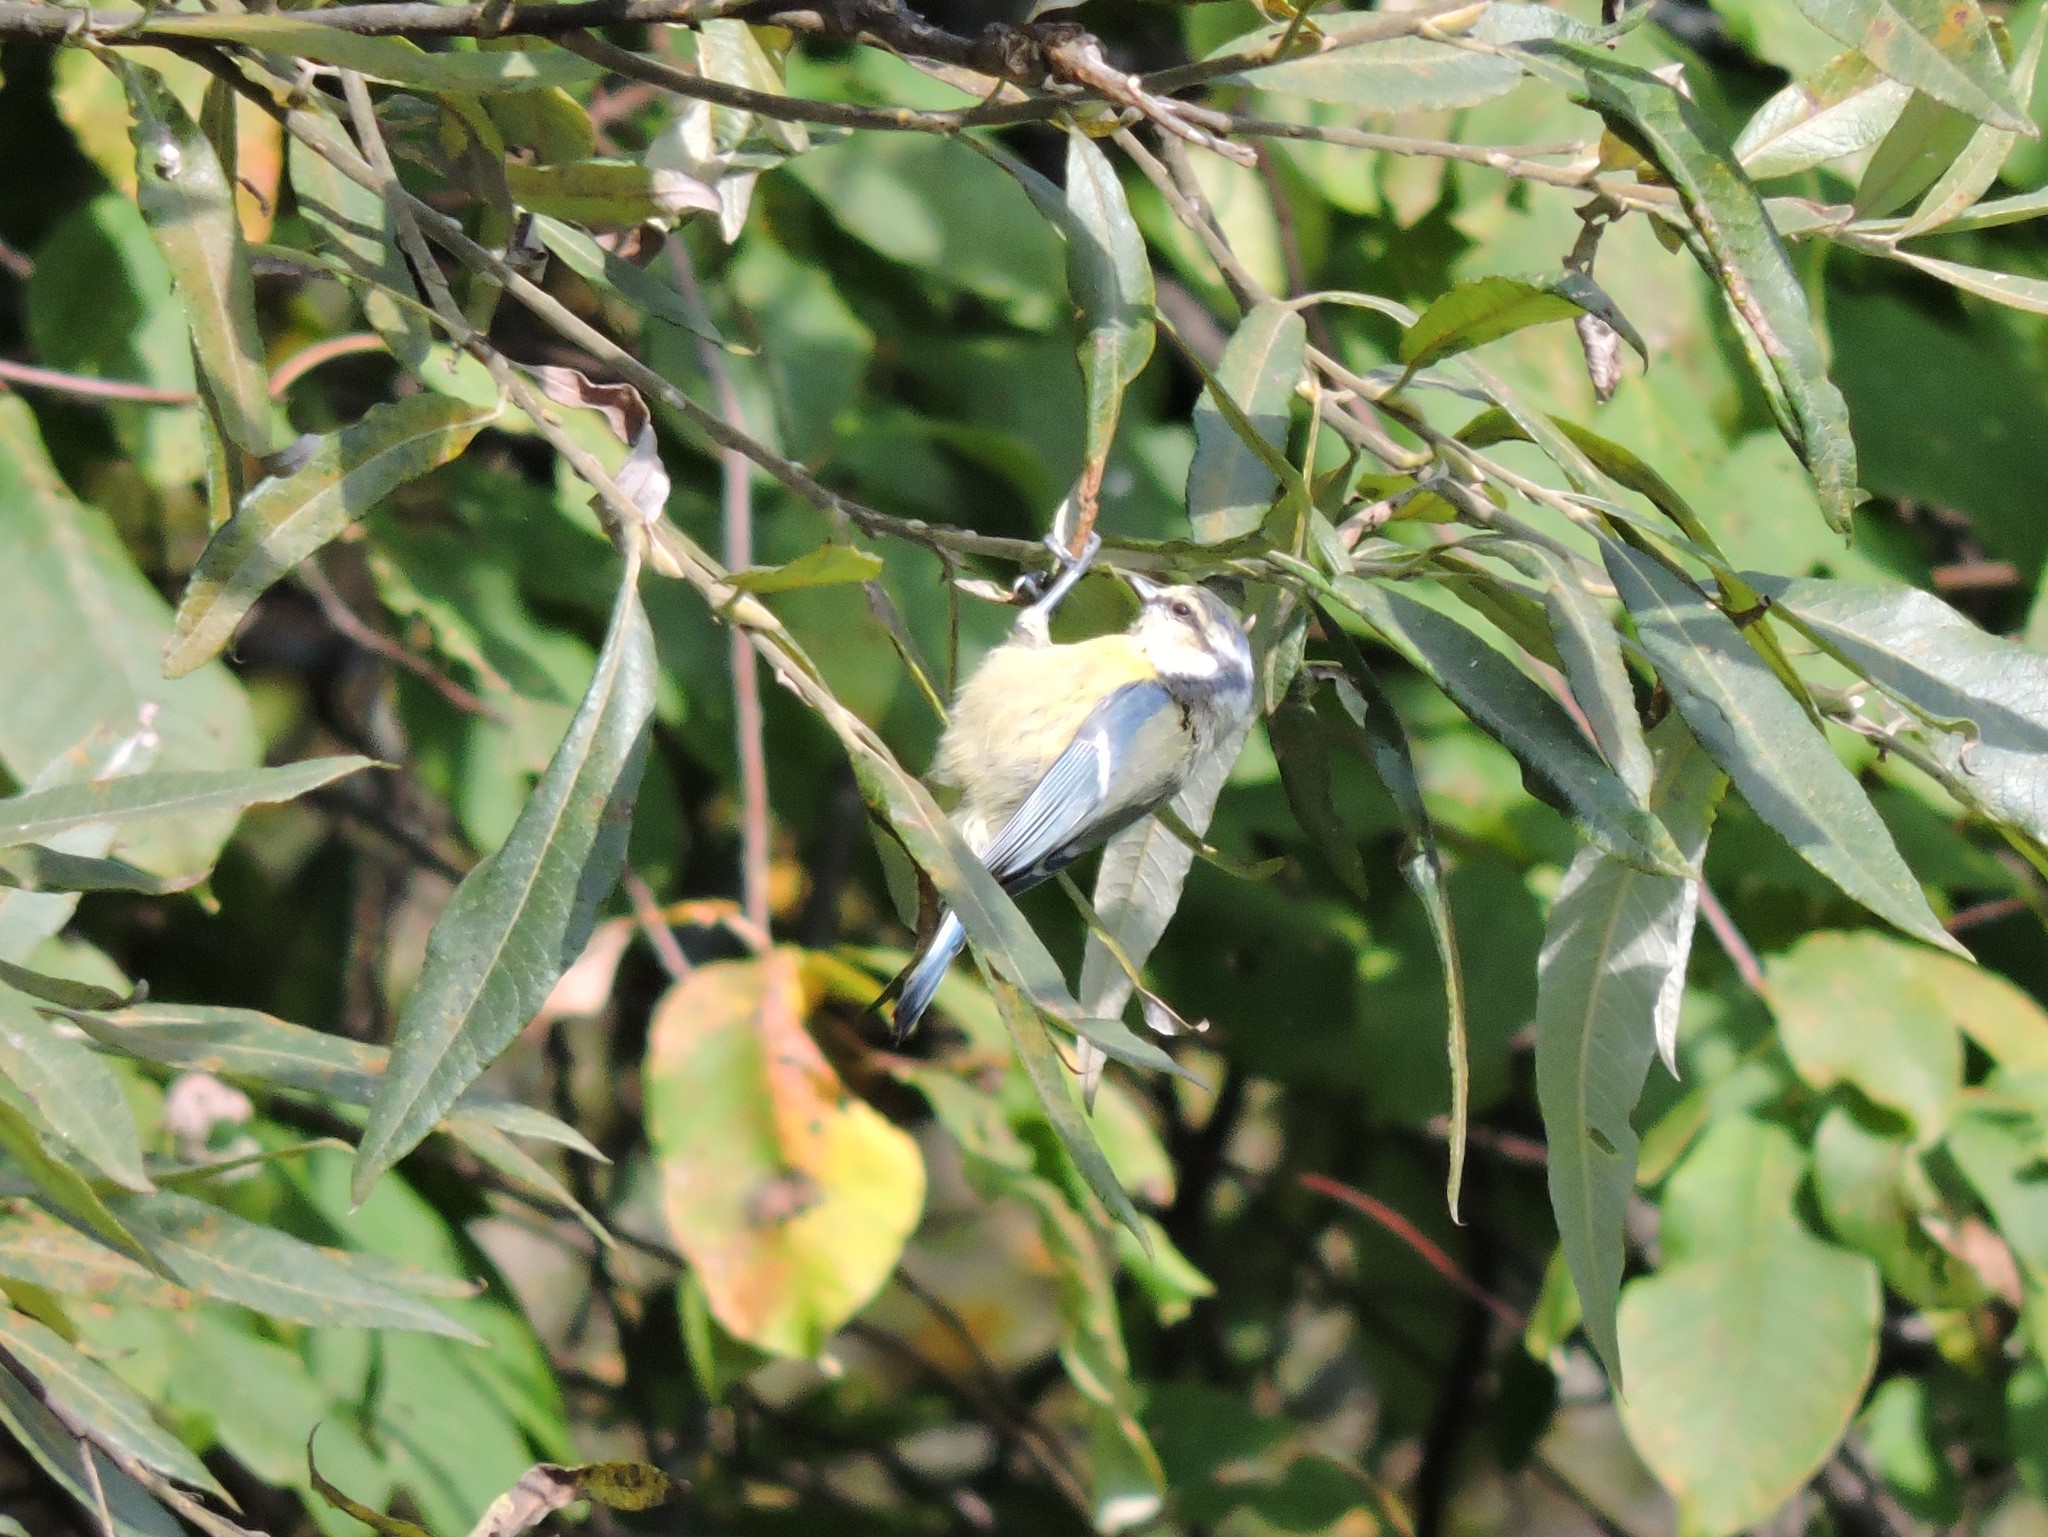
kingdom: Animalia
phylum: Chordata
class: Aves
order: Passeriformes
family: Paridae
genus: Cyanistes
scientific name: Cyanistes caeruleus
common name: Eurasian blue tit
